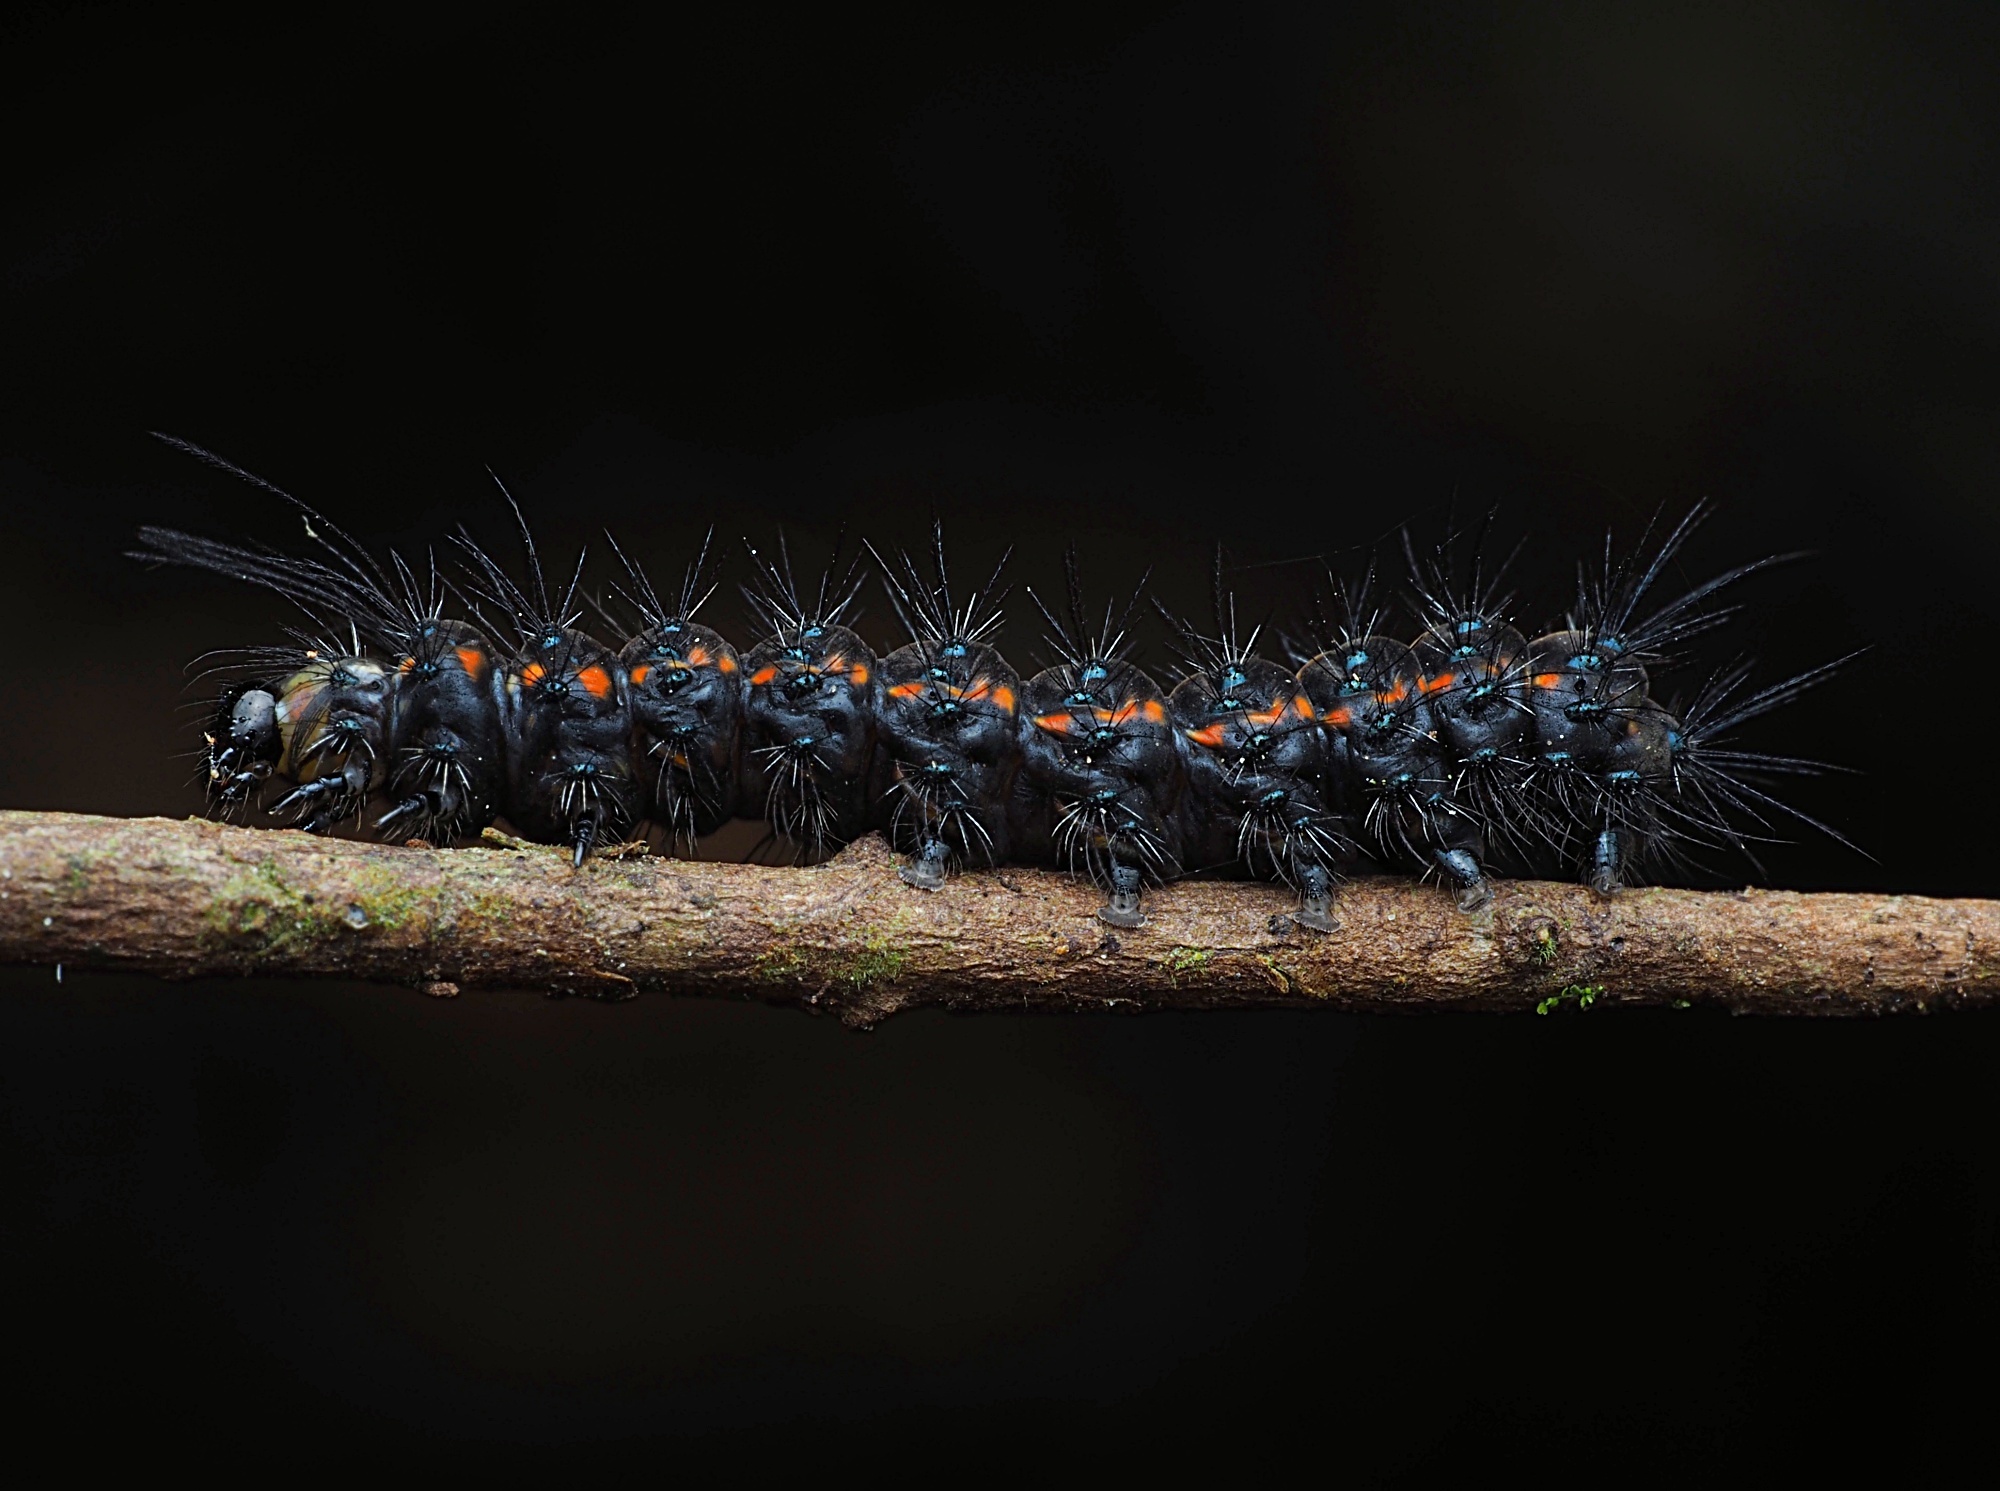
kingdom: Animalia
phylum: Arthropoda
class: Insecta
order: Lepidoptera
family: Erebidae
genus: Nyctemera
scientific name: Nyctemera
